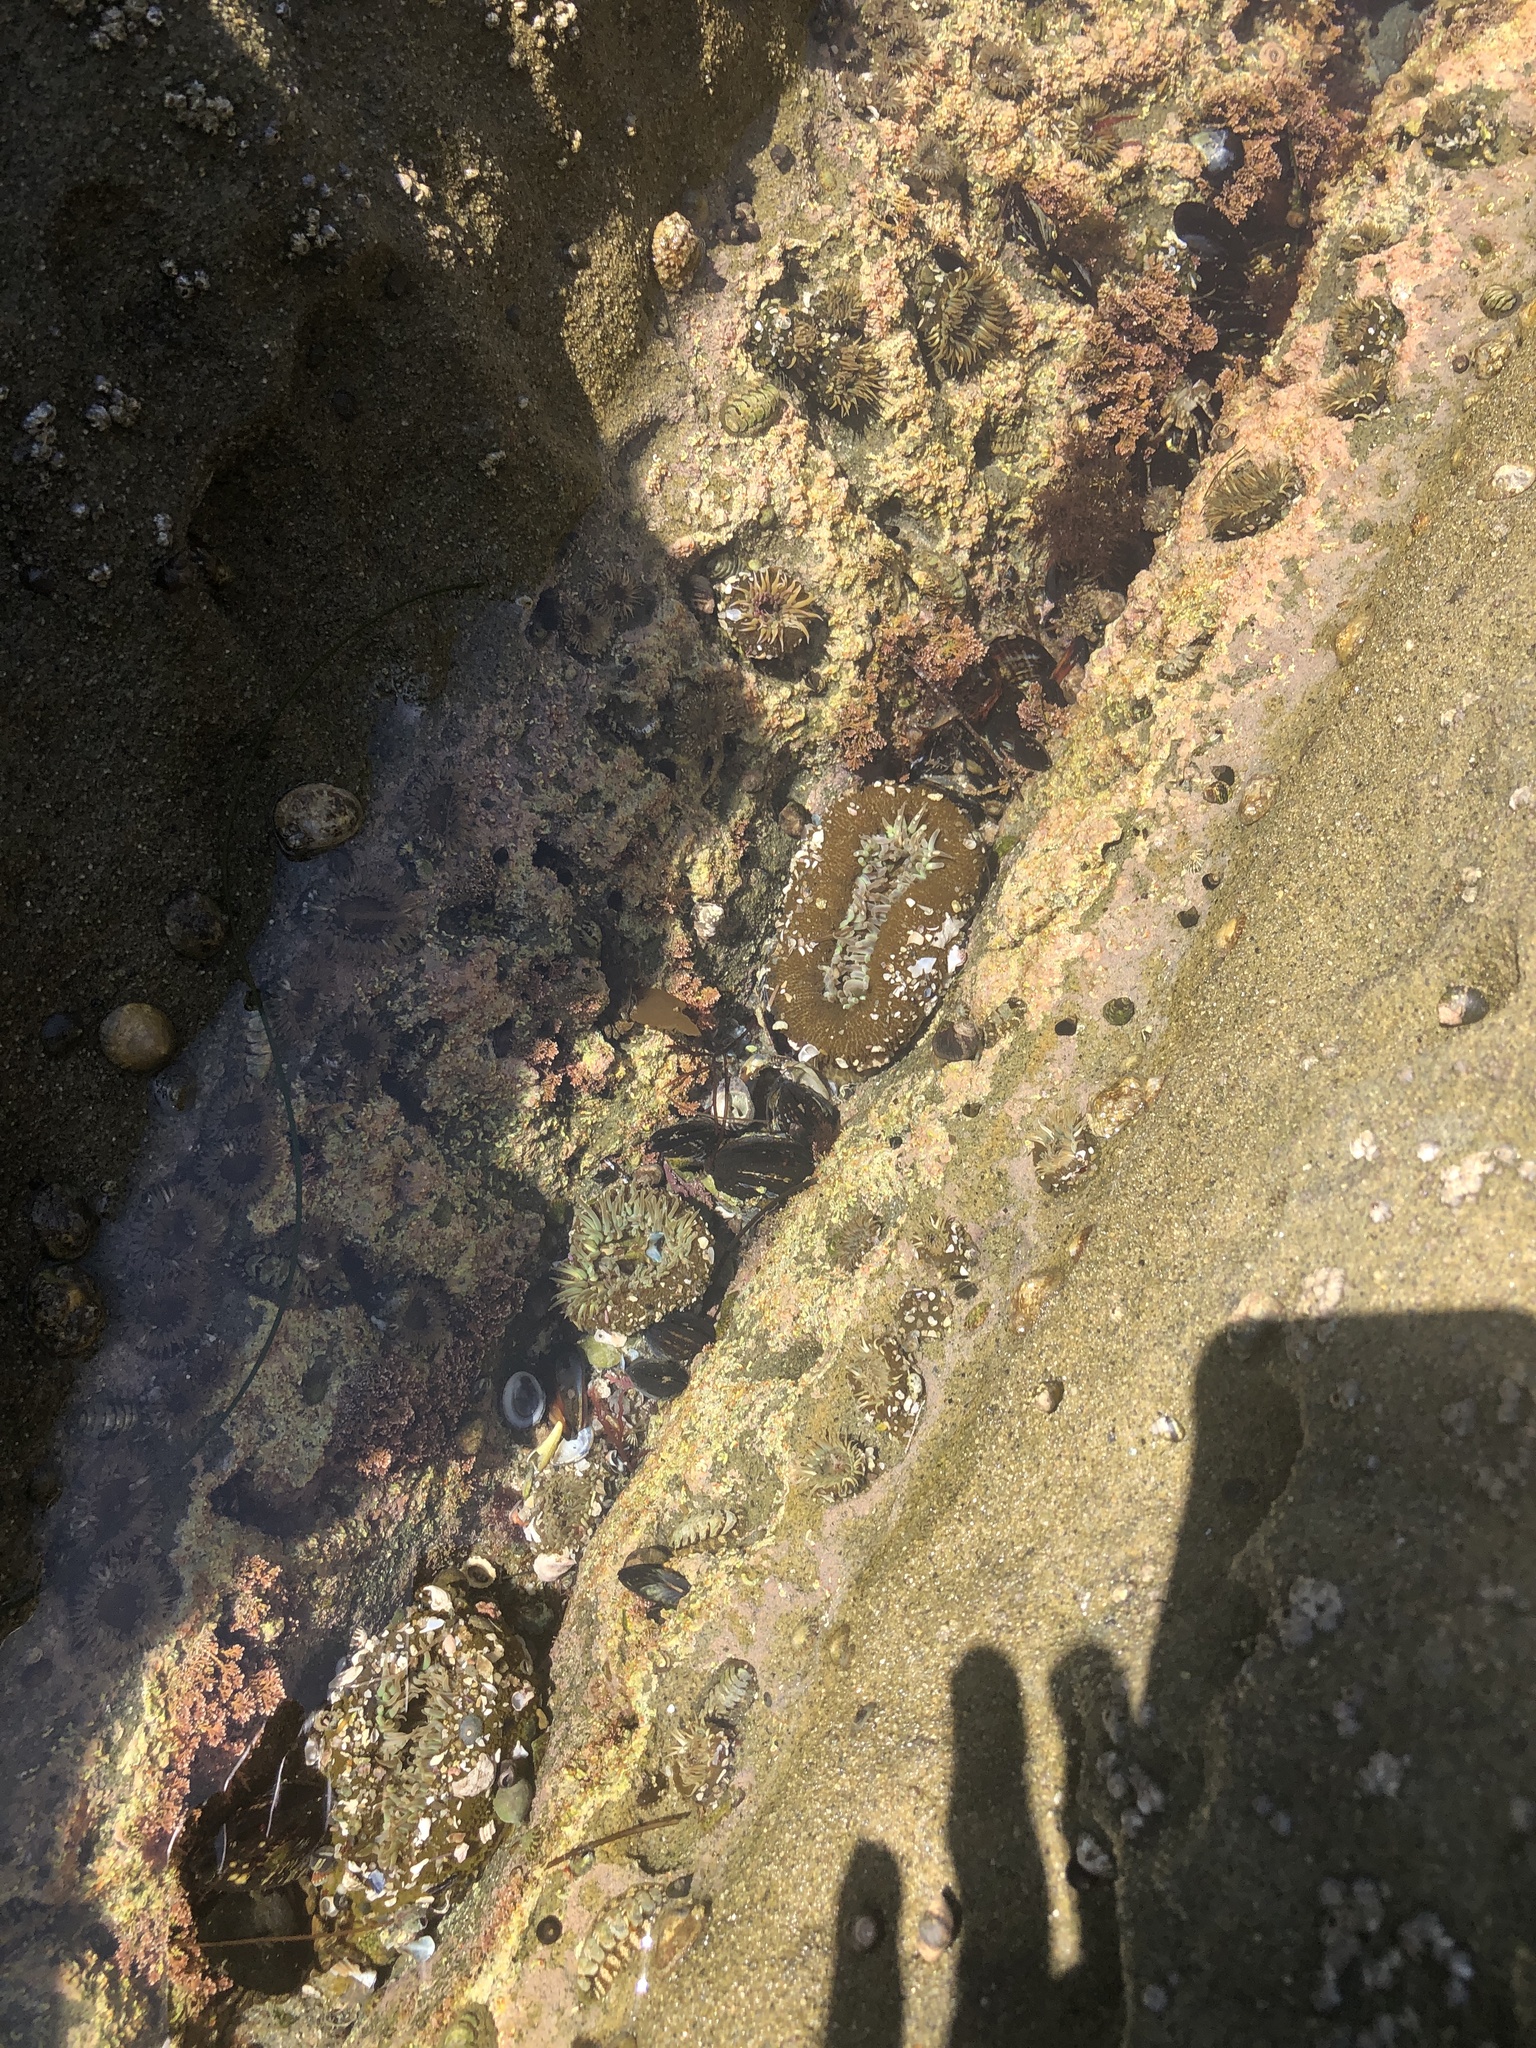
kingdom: Animalia
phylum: Cnidaria
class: Anthozoa
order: Actiniaria
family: Actiniidae
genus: Anthopleura
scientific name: Anthopleura xanthogrammica
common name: Giant green anemone
